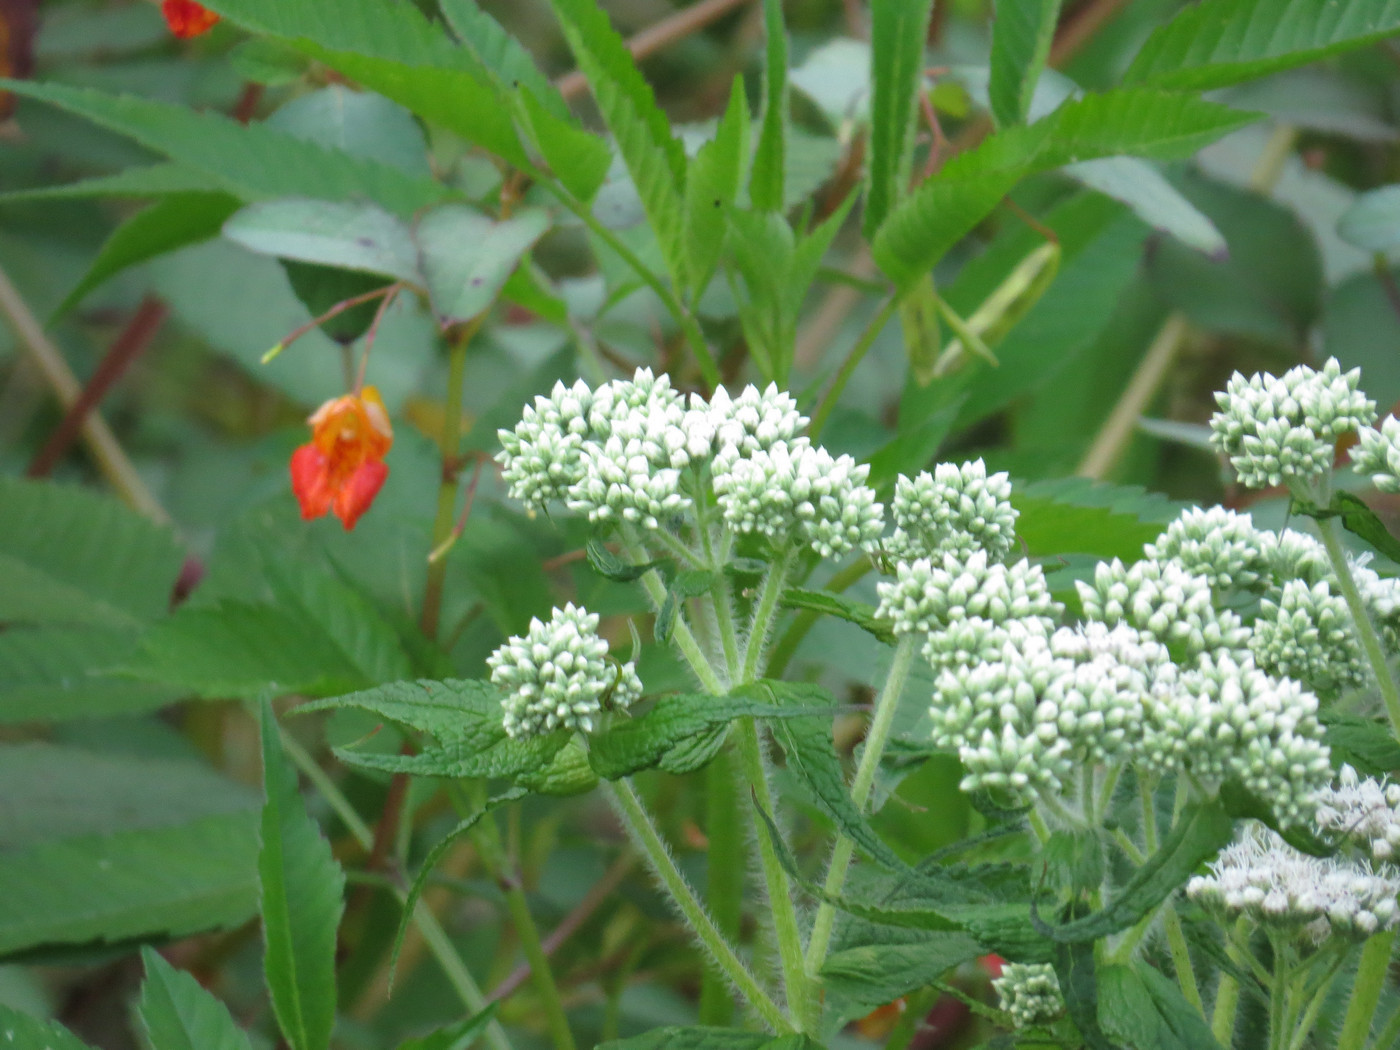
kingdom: Plantae
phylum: Tracheophyta
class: Magnoliopsida
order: Asterales
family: Asteraceae
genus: Eupatorium
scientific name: Eupatorium perfoliatum
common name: Boneset
